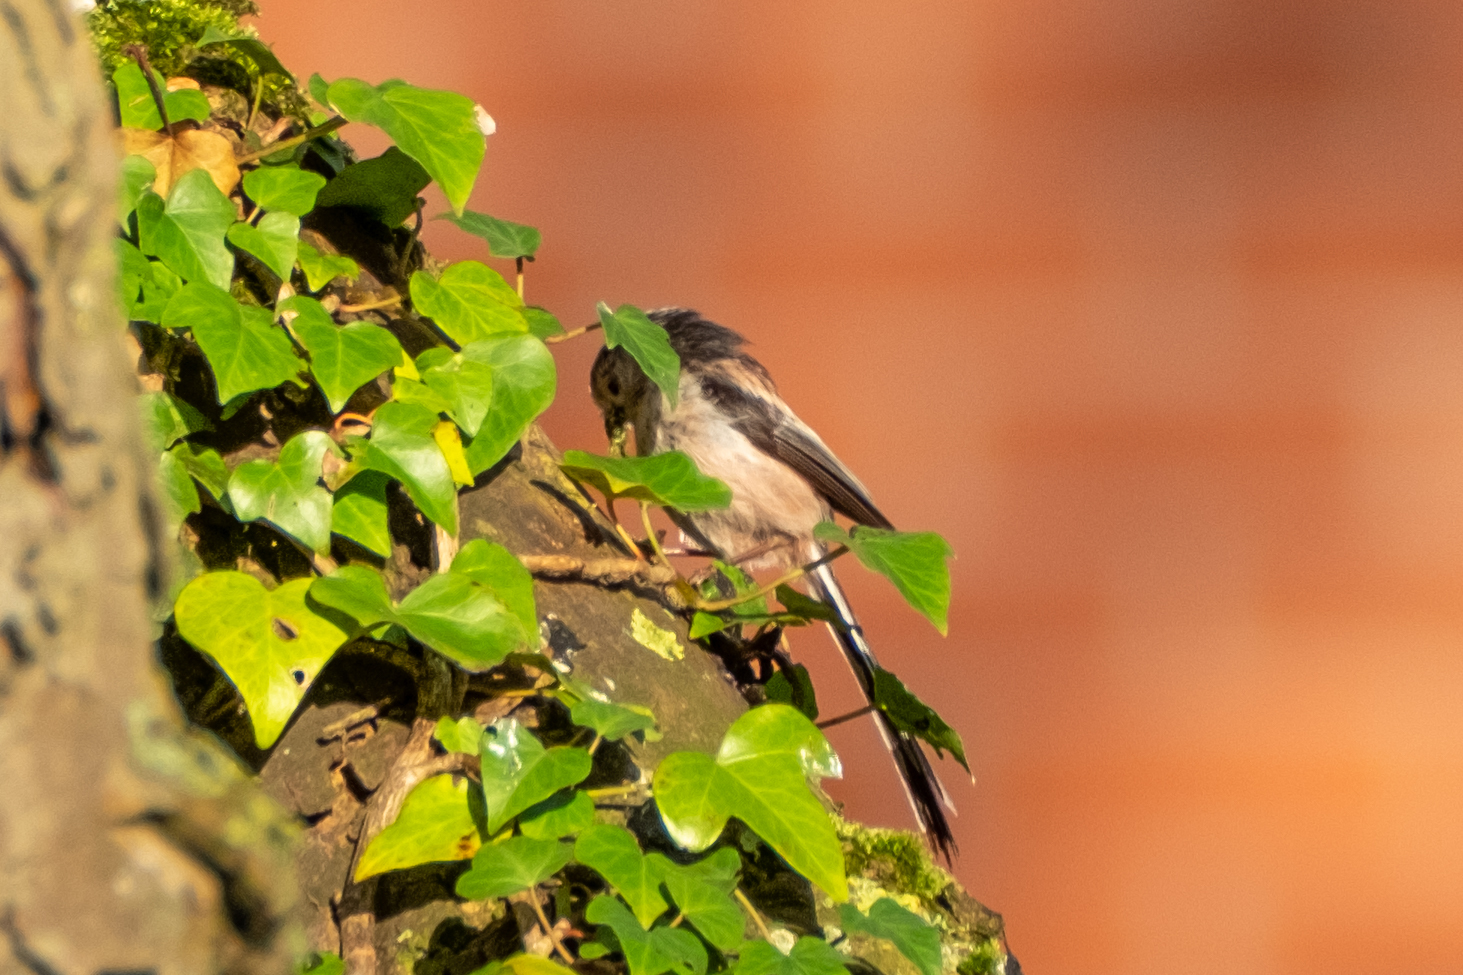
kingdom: Animalia
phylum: Chordata
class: Aves
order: Passeriformes
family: Aegithalidae
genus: Aegithalos
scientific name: Aegithalos caudatus
